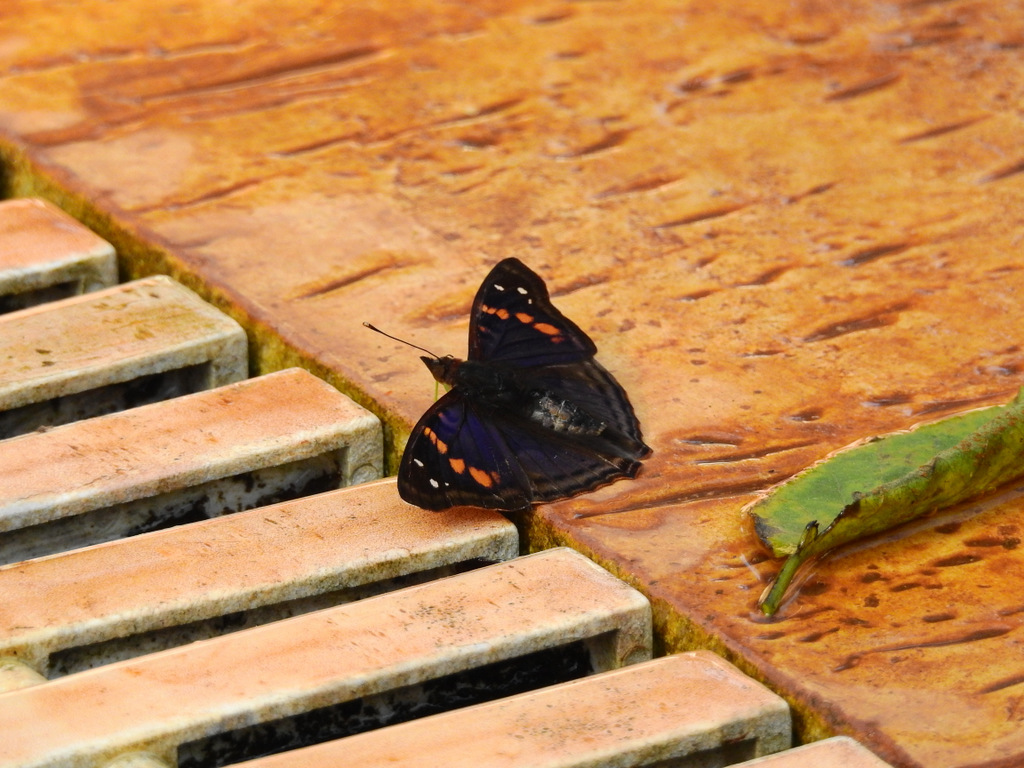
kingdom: Animalia
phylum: Arthropoda
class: Insecta
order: Lepidoptera
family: Nymphalidae
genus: Doxocopa
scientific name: Doxocopa agathina
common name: Agathina emperor
